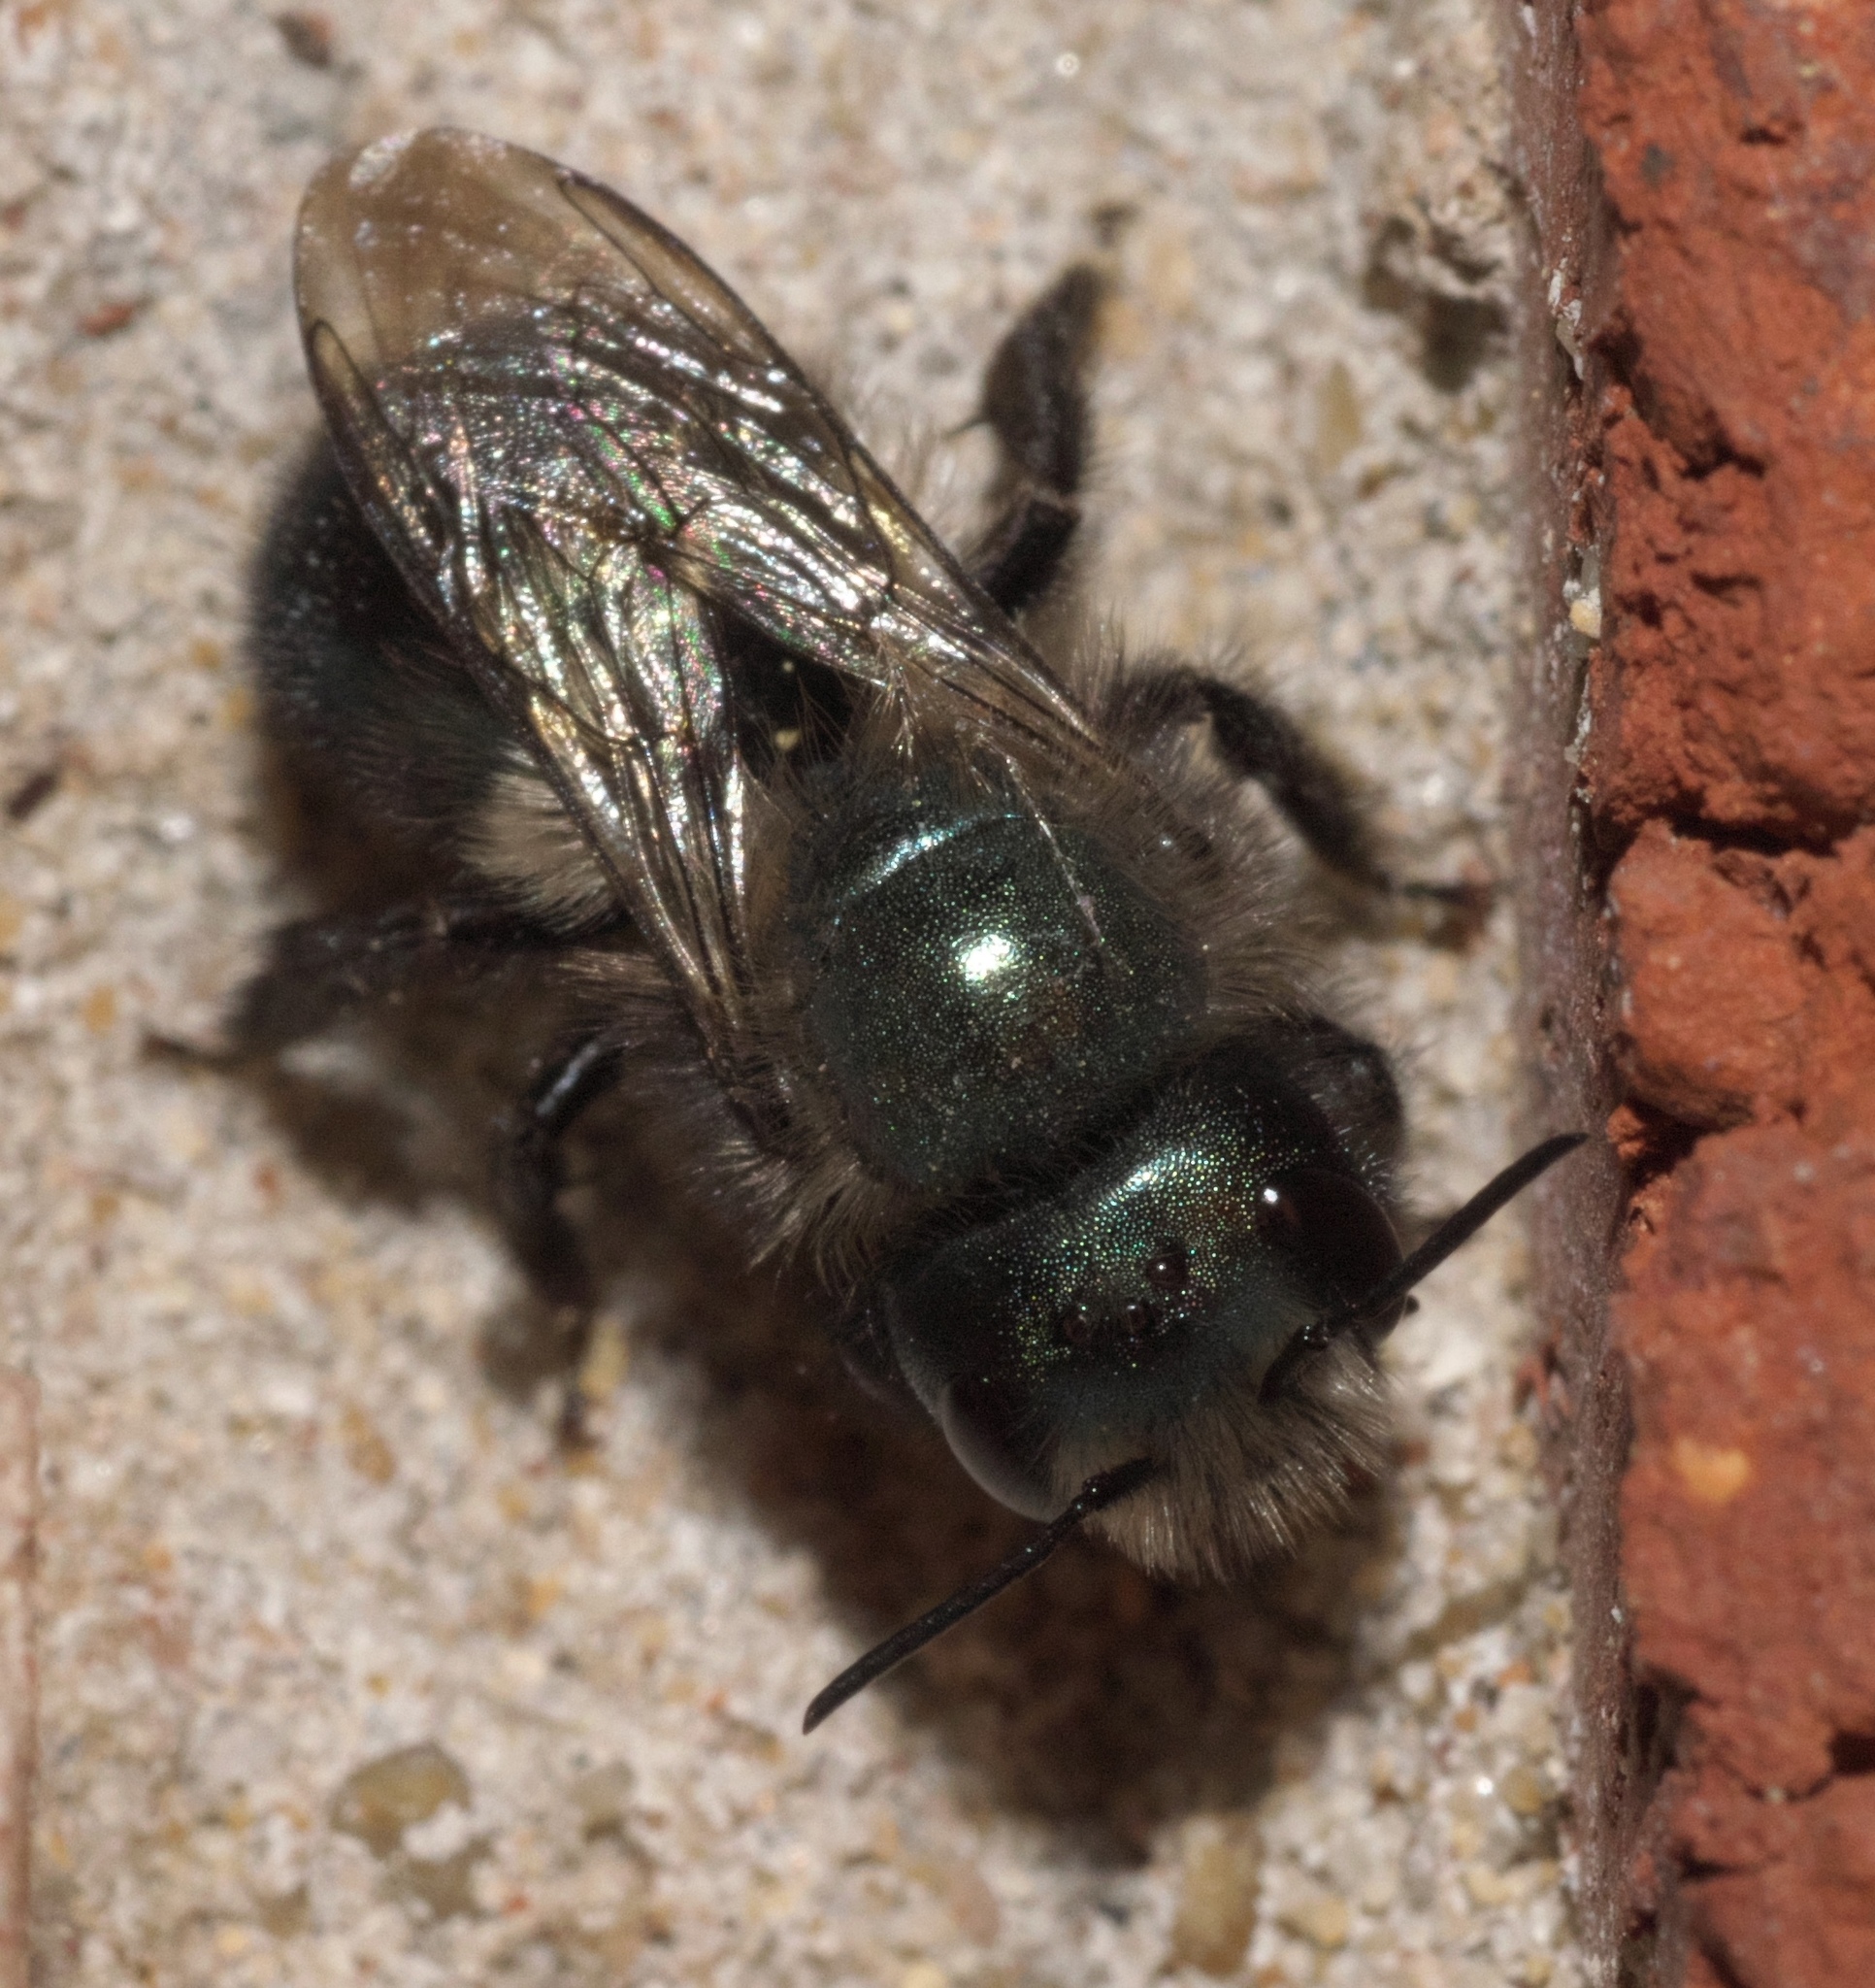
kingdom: Animalia
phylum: Arthropoda
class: Insecta
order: Hymenoptera
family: Megachilidae
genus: Osmia
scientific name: Osmia lignaria
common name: Blue orchard bee
